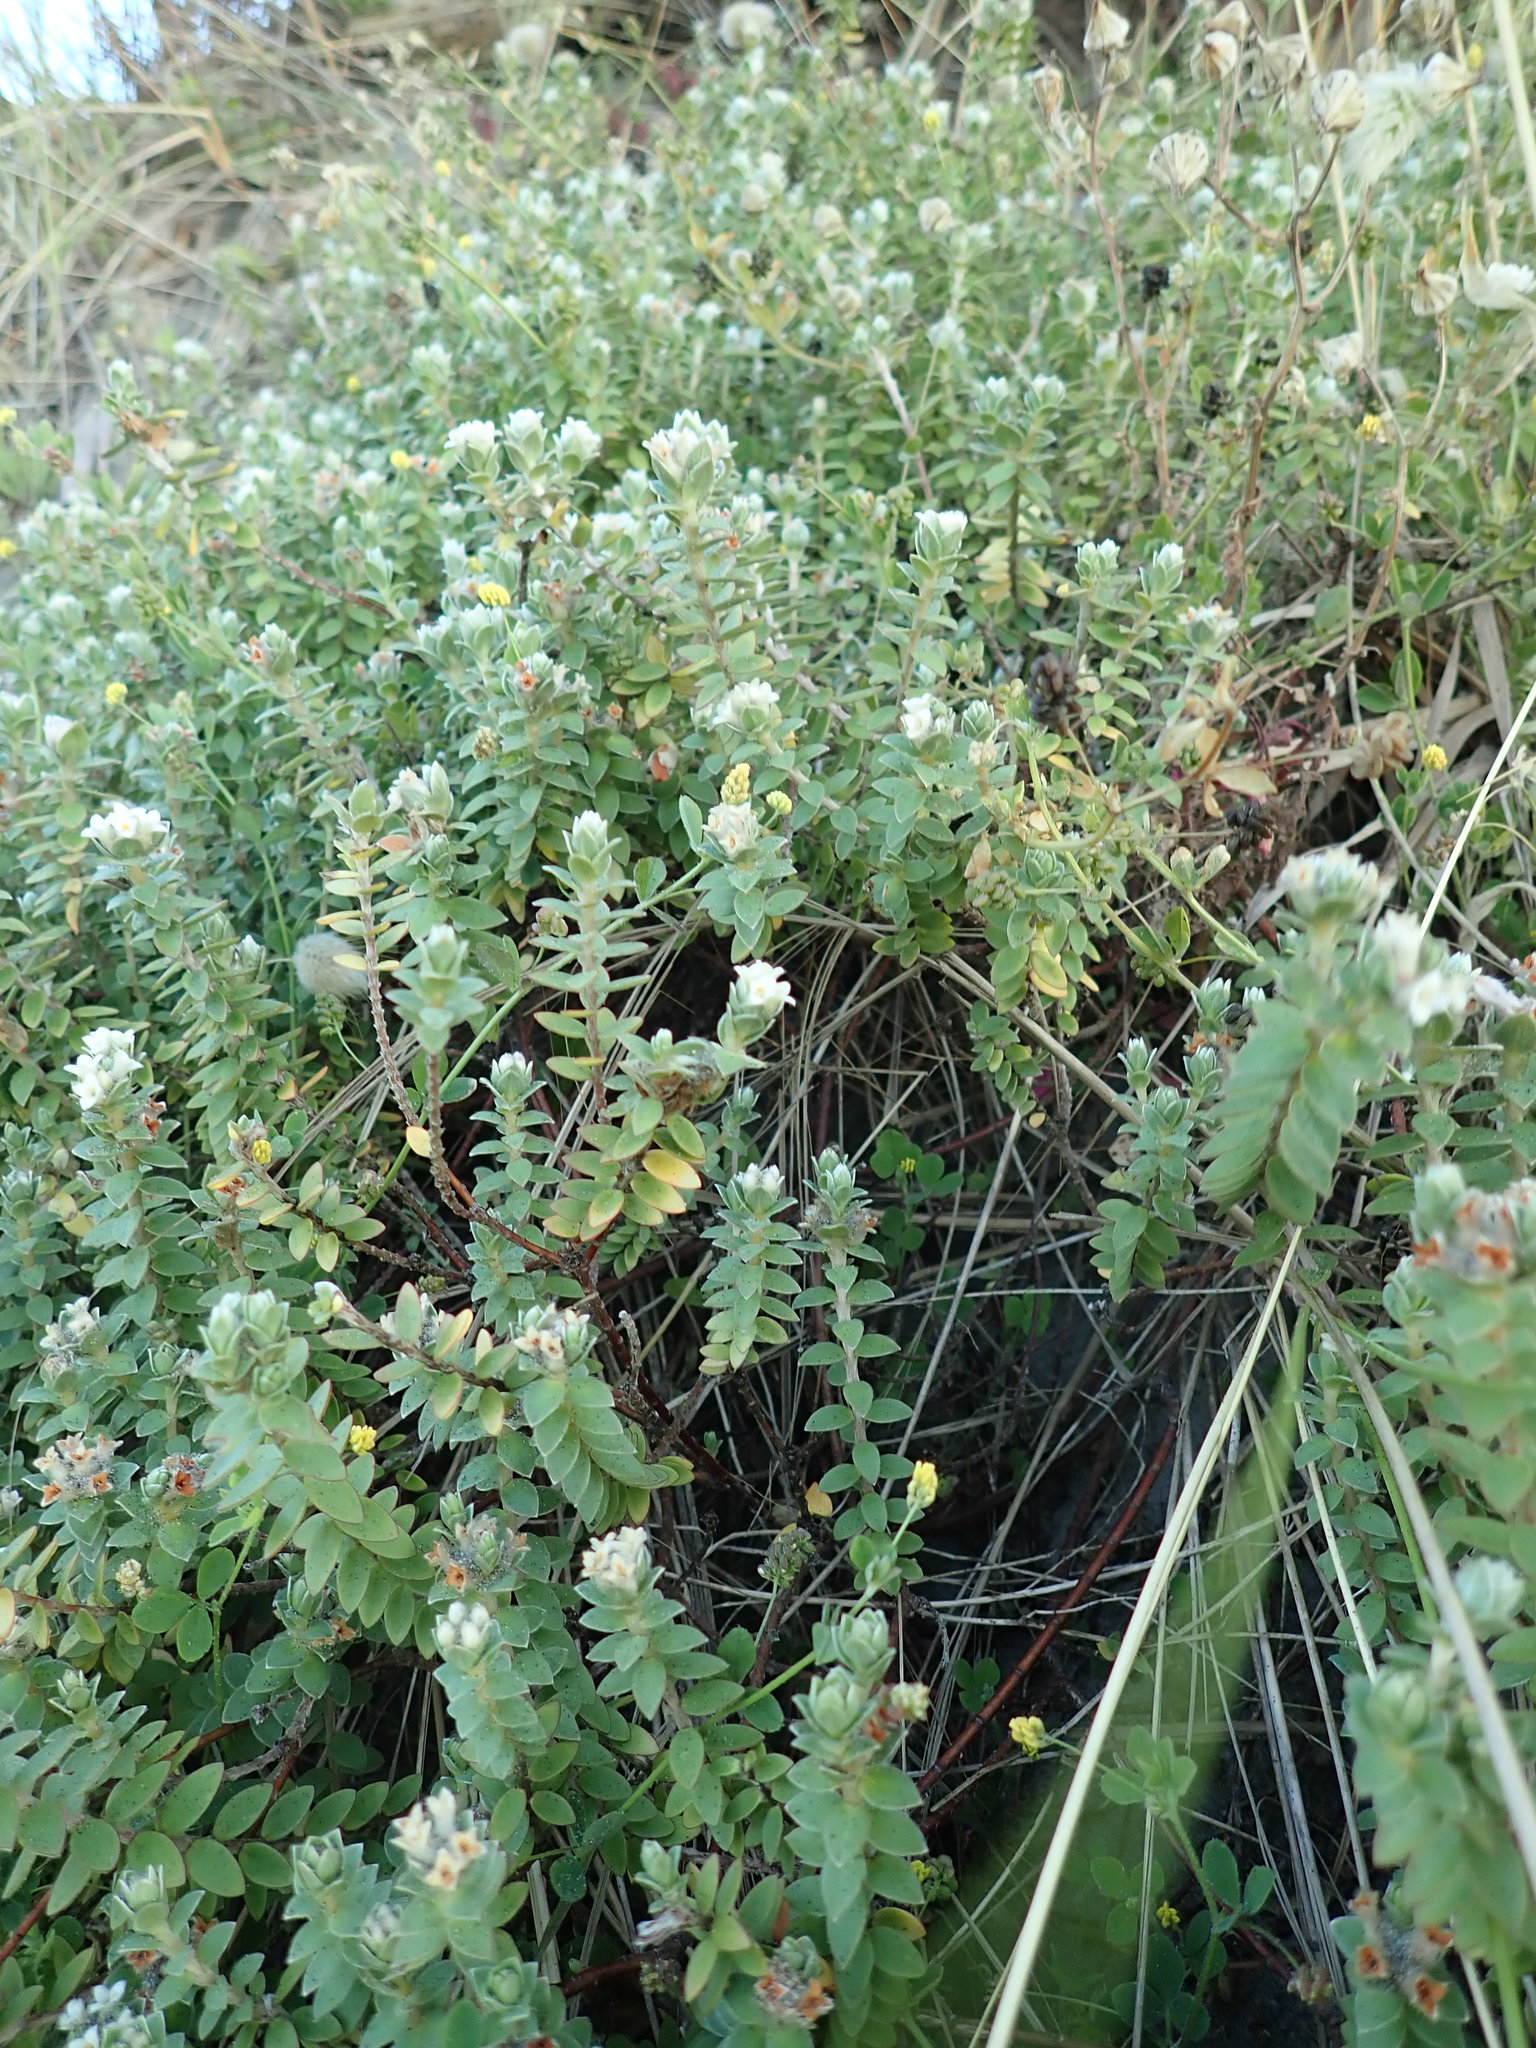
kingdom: Plantae
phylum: Tracheophyta
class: Magnoliopsida
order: Malvales
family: Thymelaeaceae
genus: Pimelea
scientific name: Pimelea villosa
